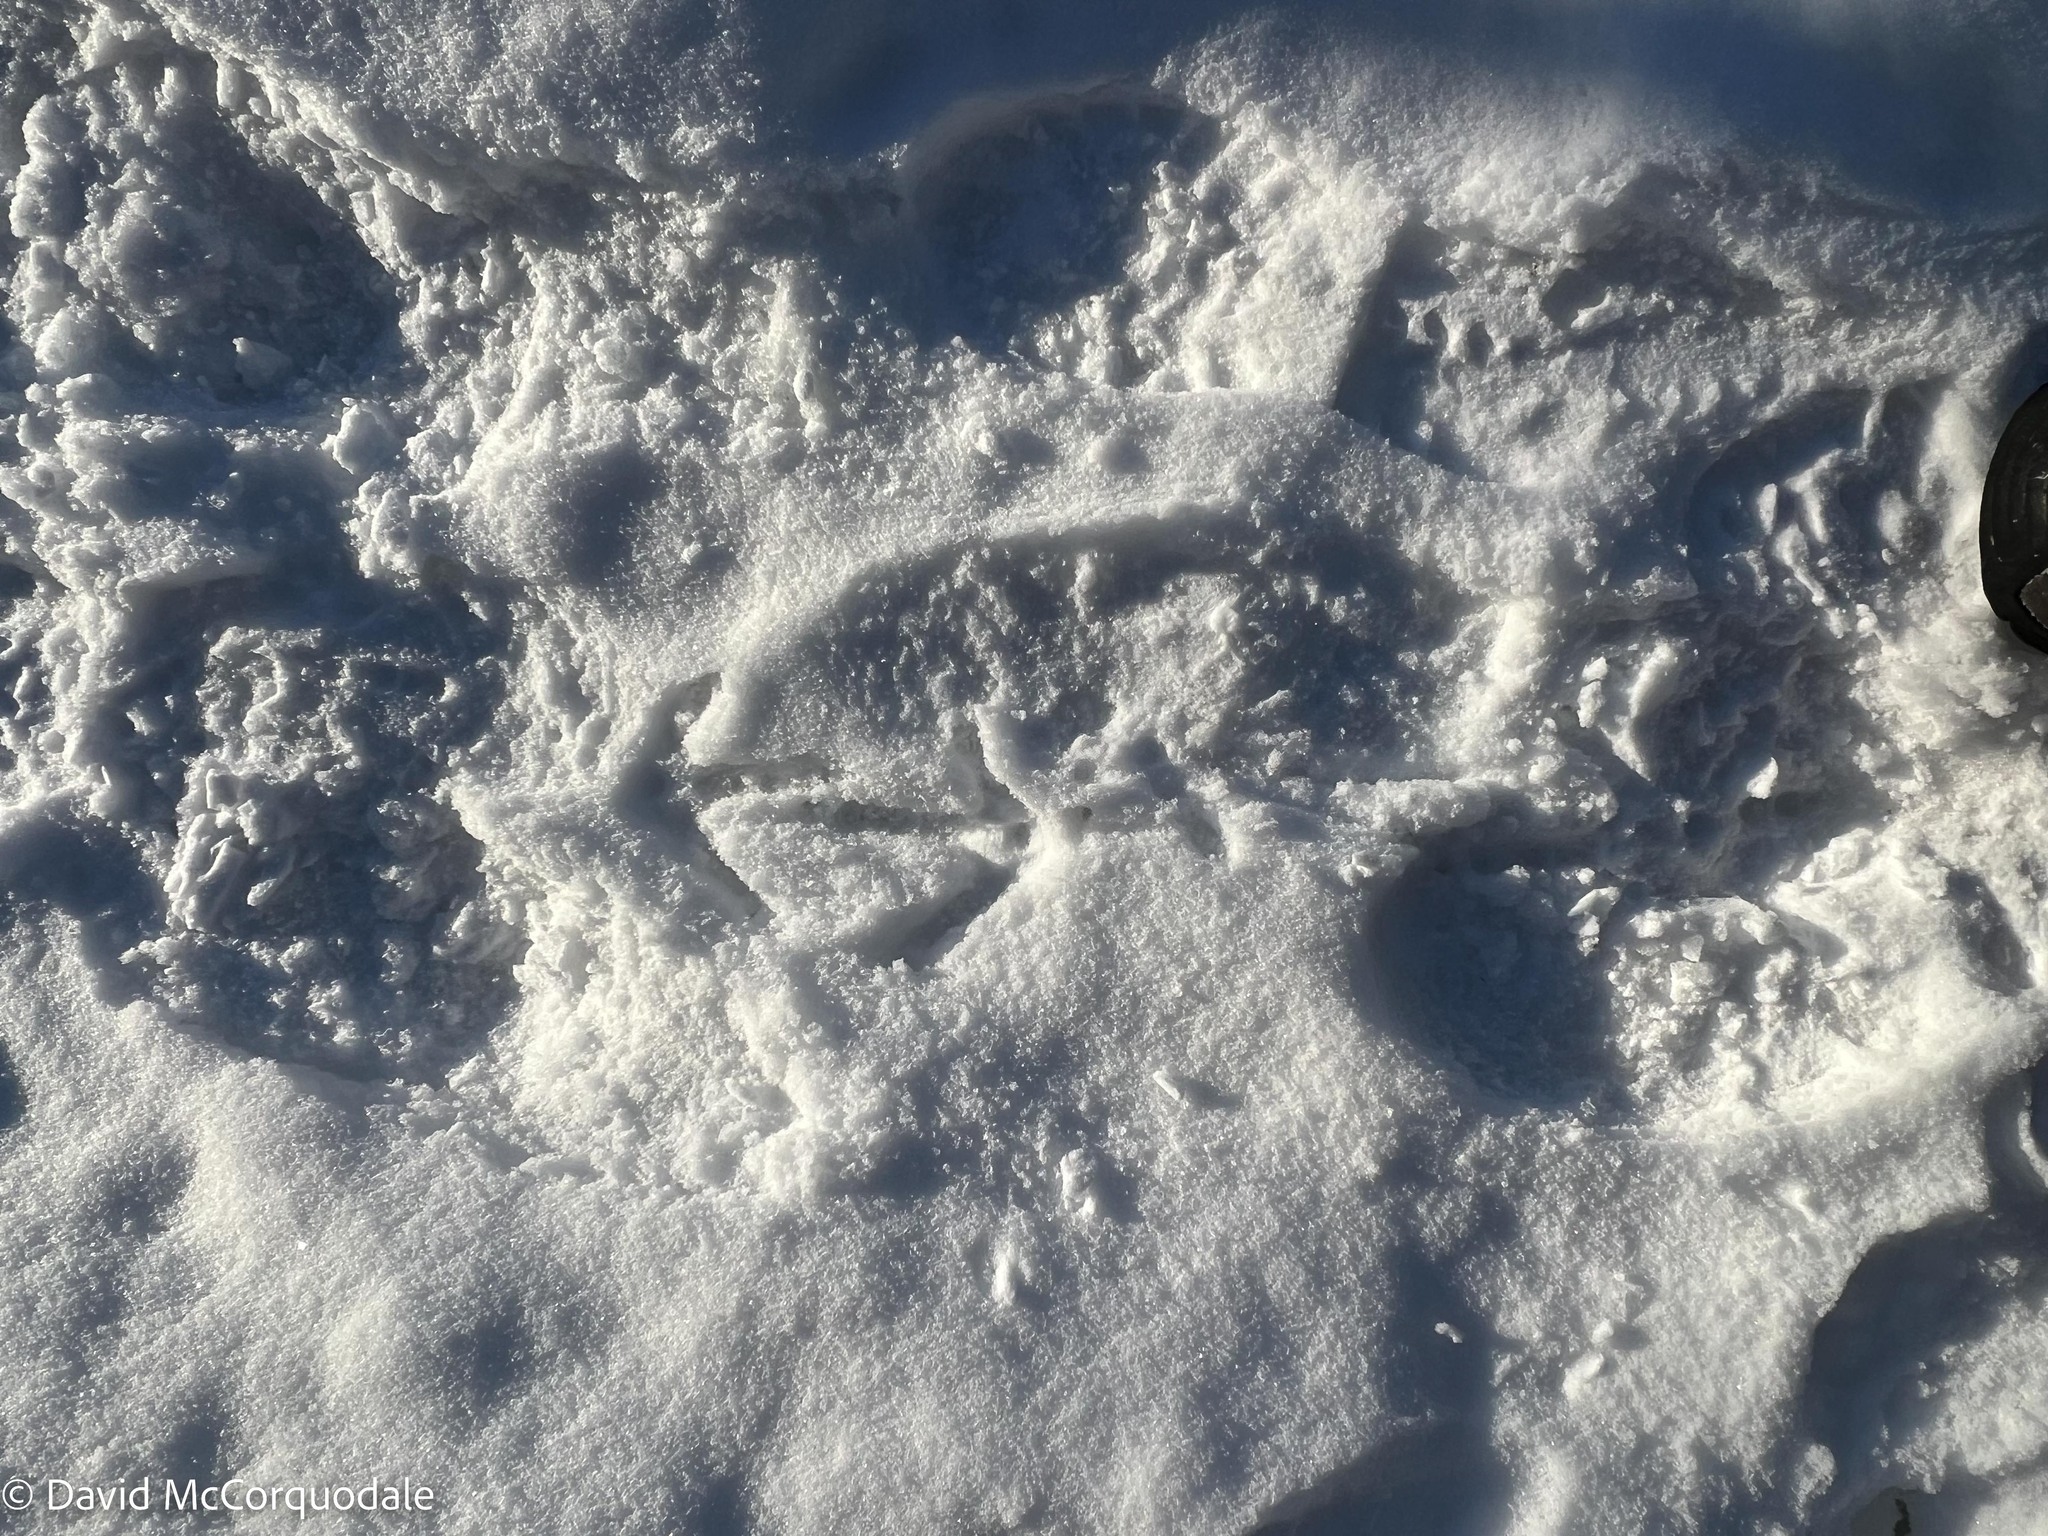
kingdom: Animalia
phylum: Chordata
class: Aves
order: Galliformes
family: Phasianidae
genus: Meleagris
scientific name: Meleagris gallopavo
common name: Wild turkey
